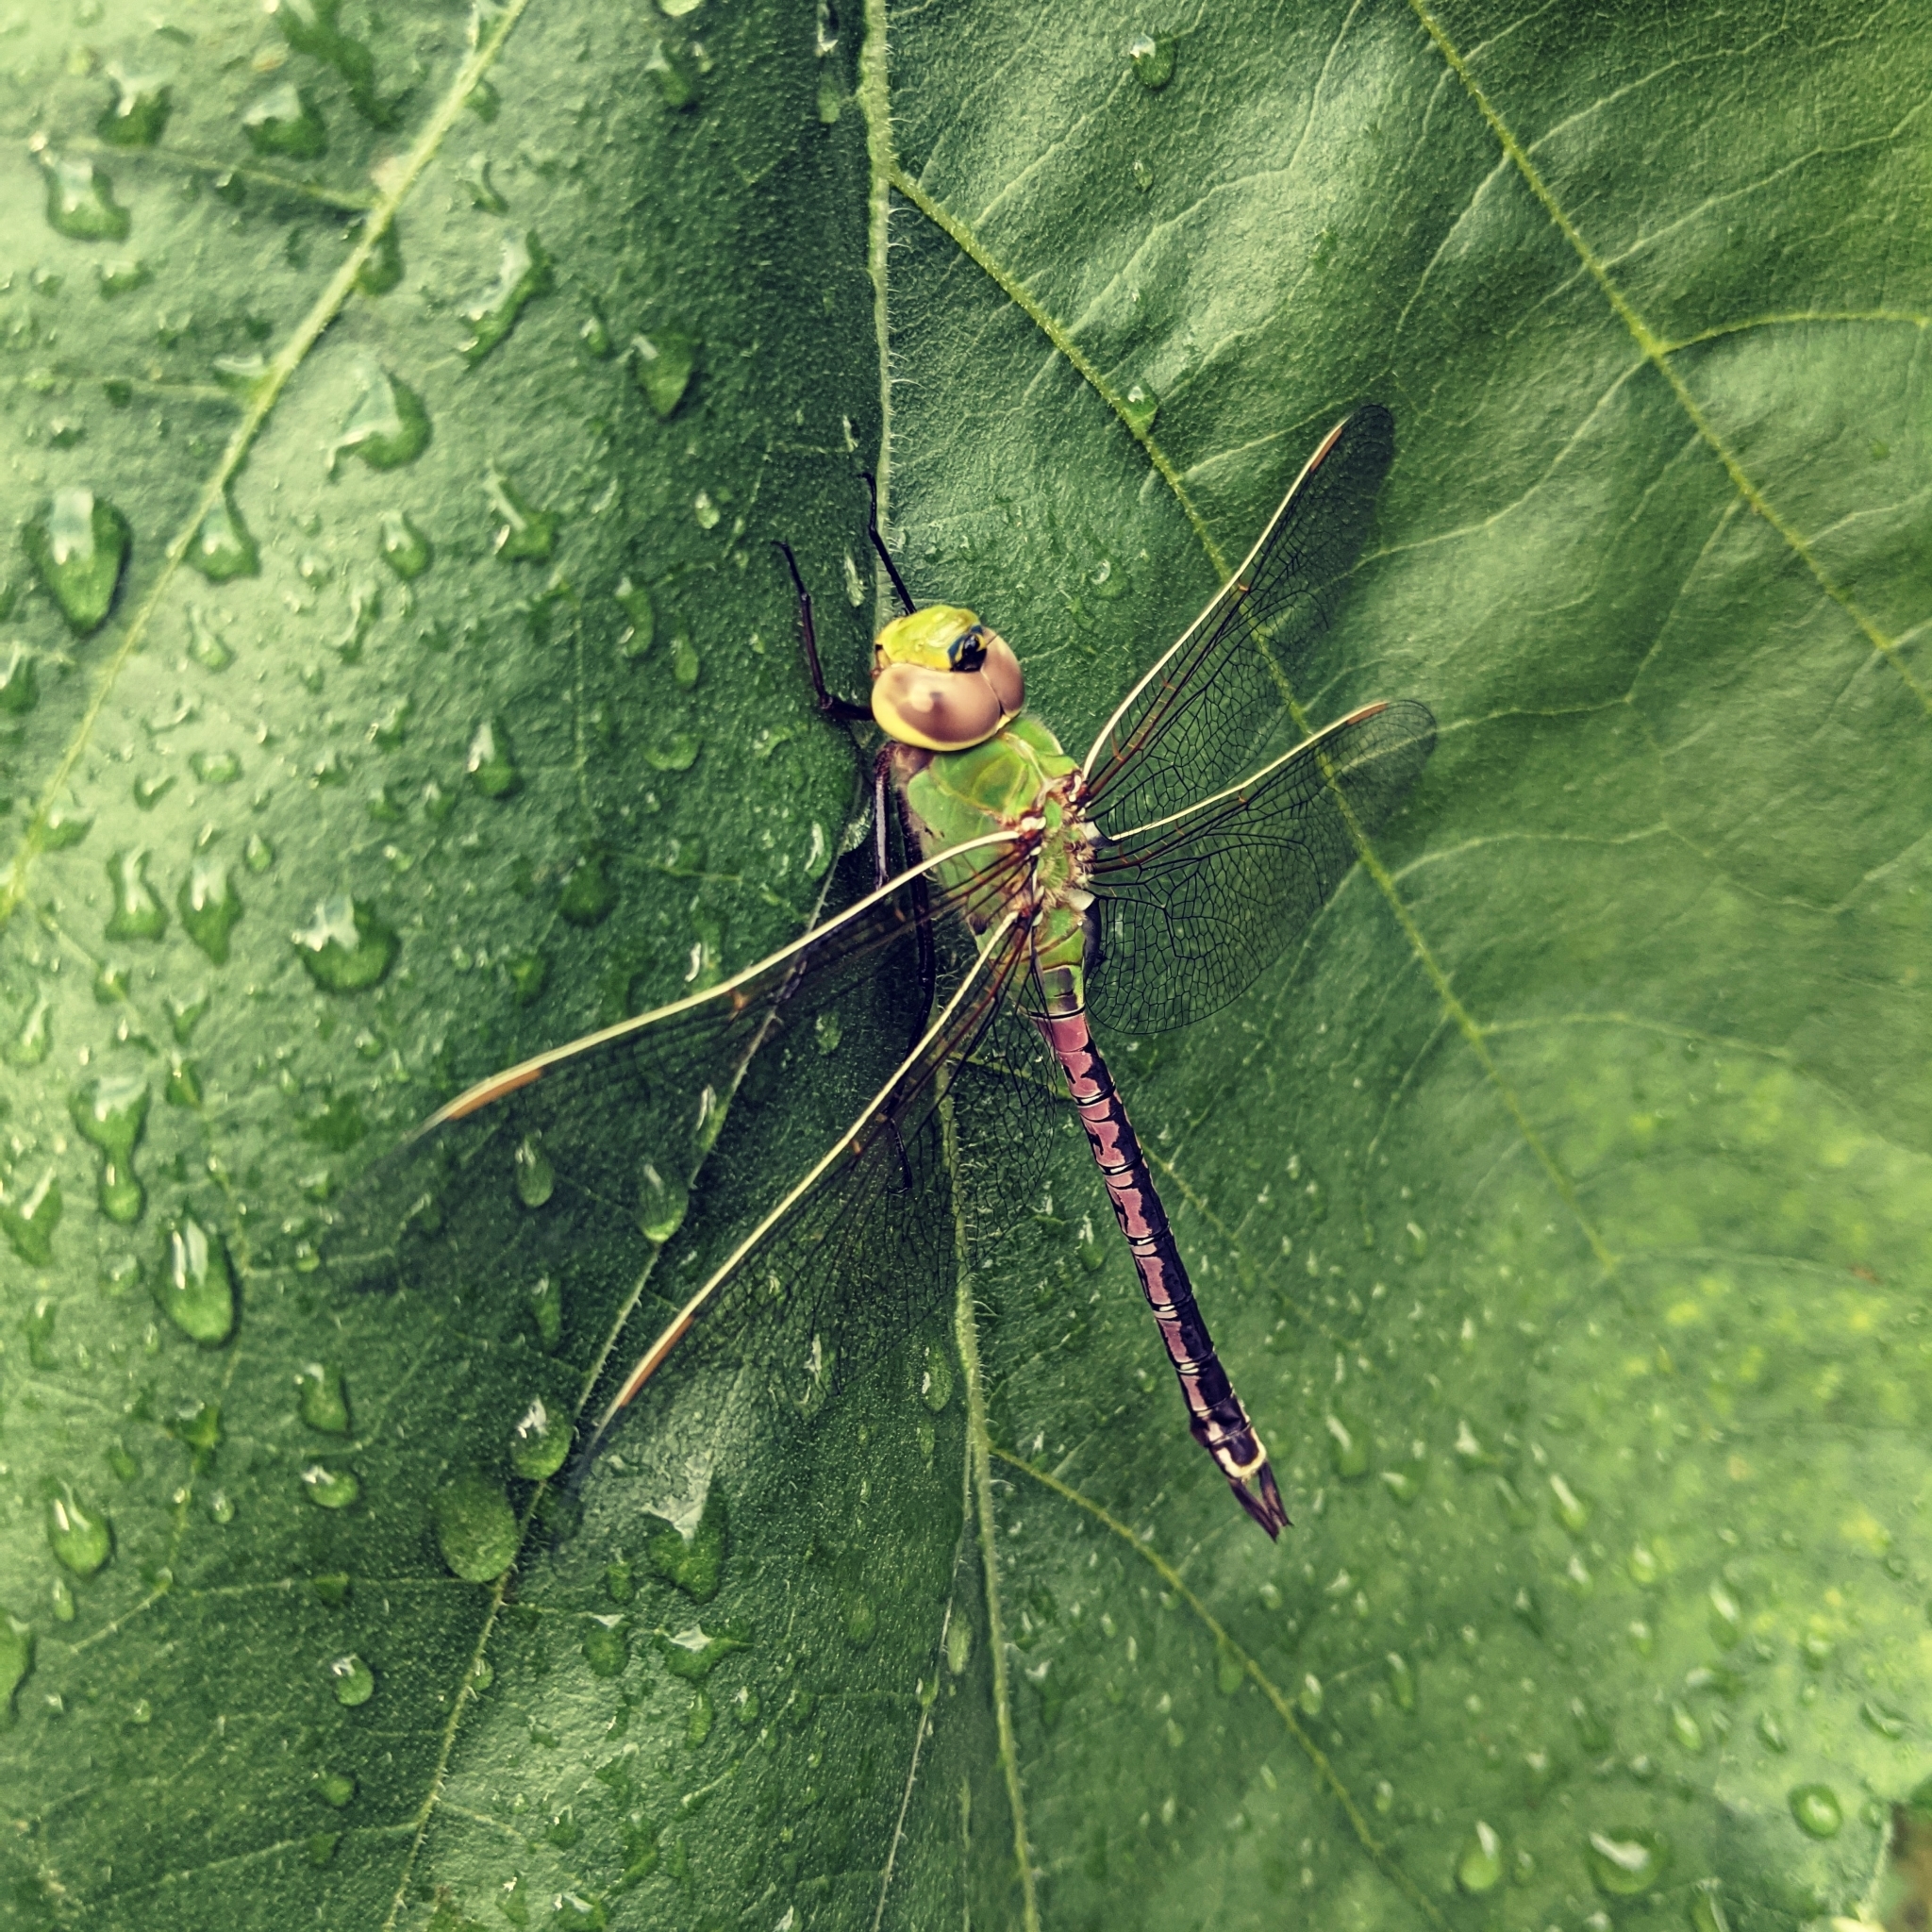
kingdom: Animalia
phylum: Arthropoda
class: Insecta
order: Odonata
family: Aeshnidae
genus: Anax
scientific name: Anax junius
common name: Common green darner
